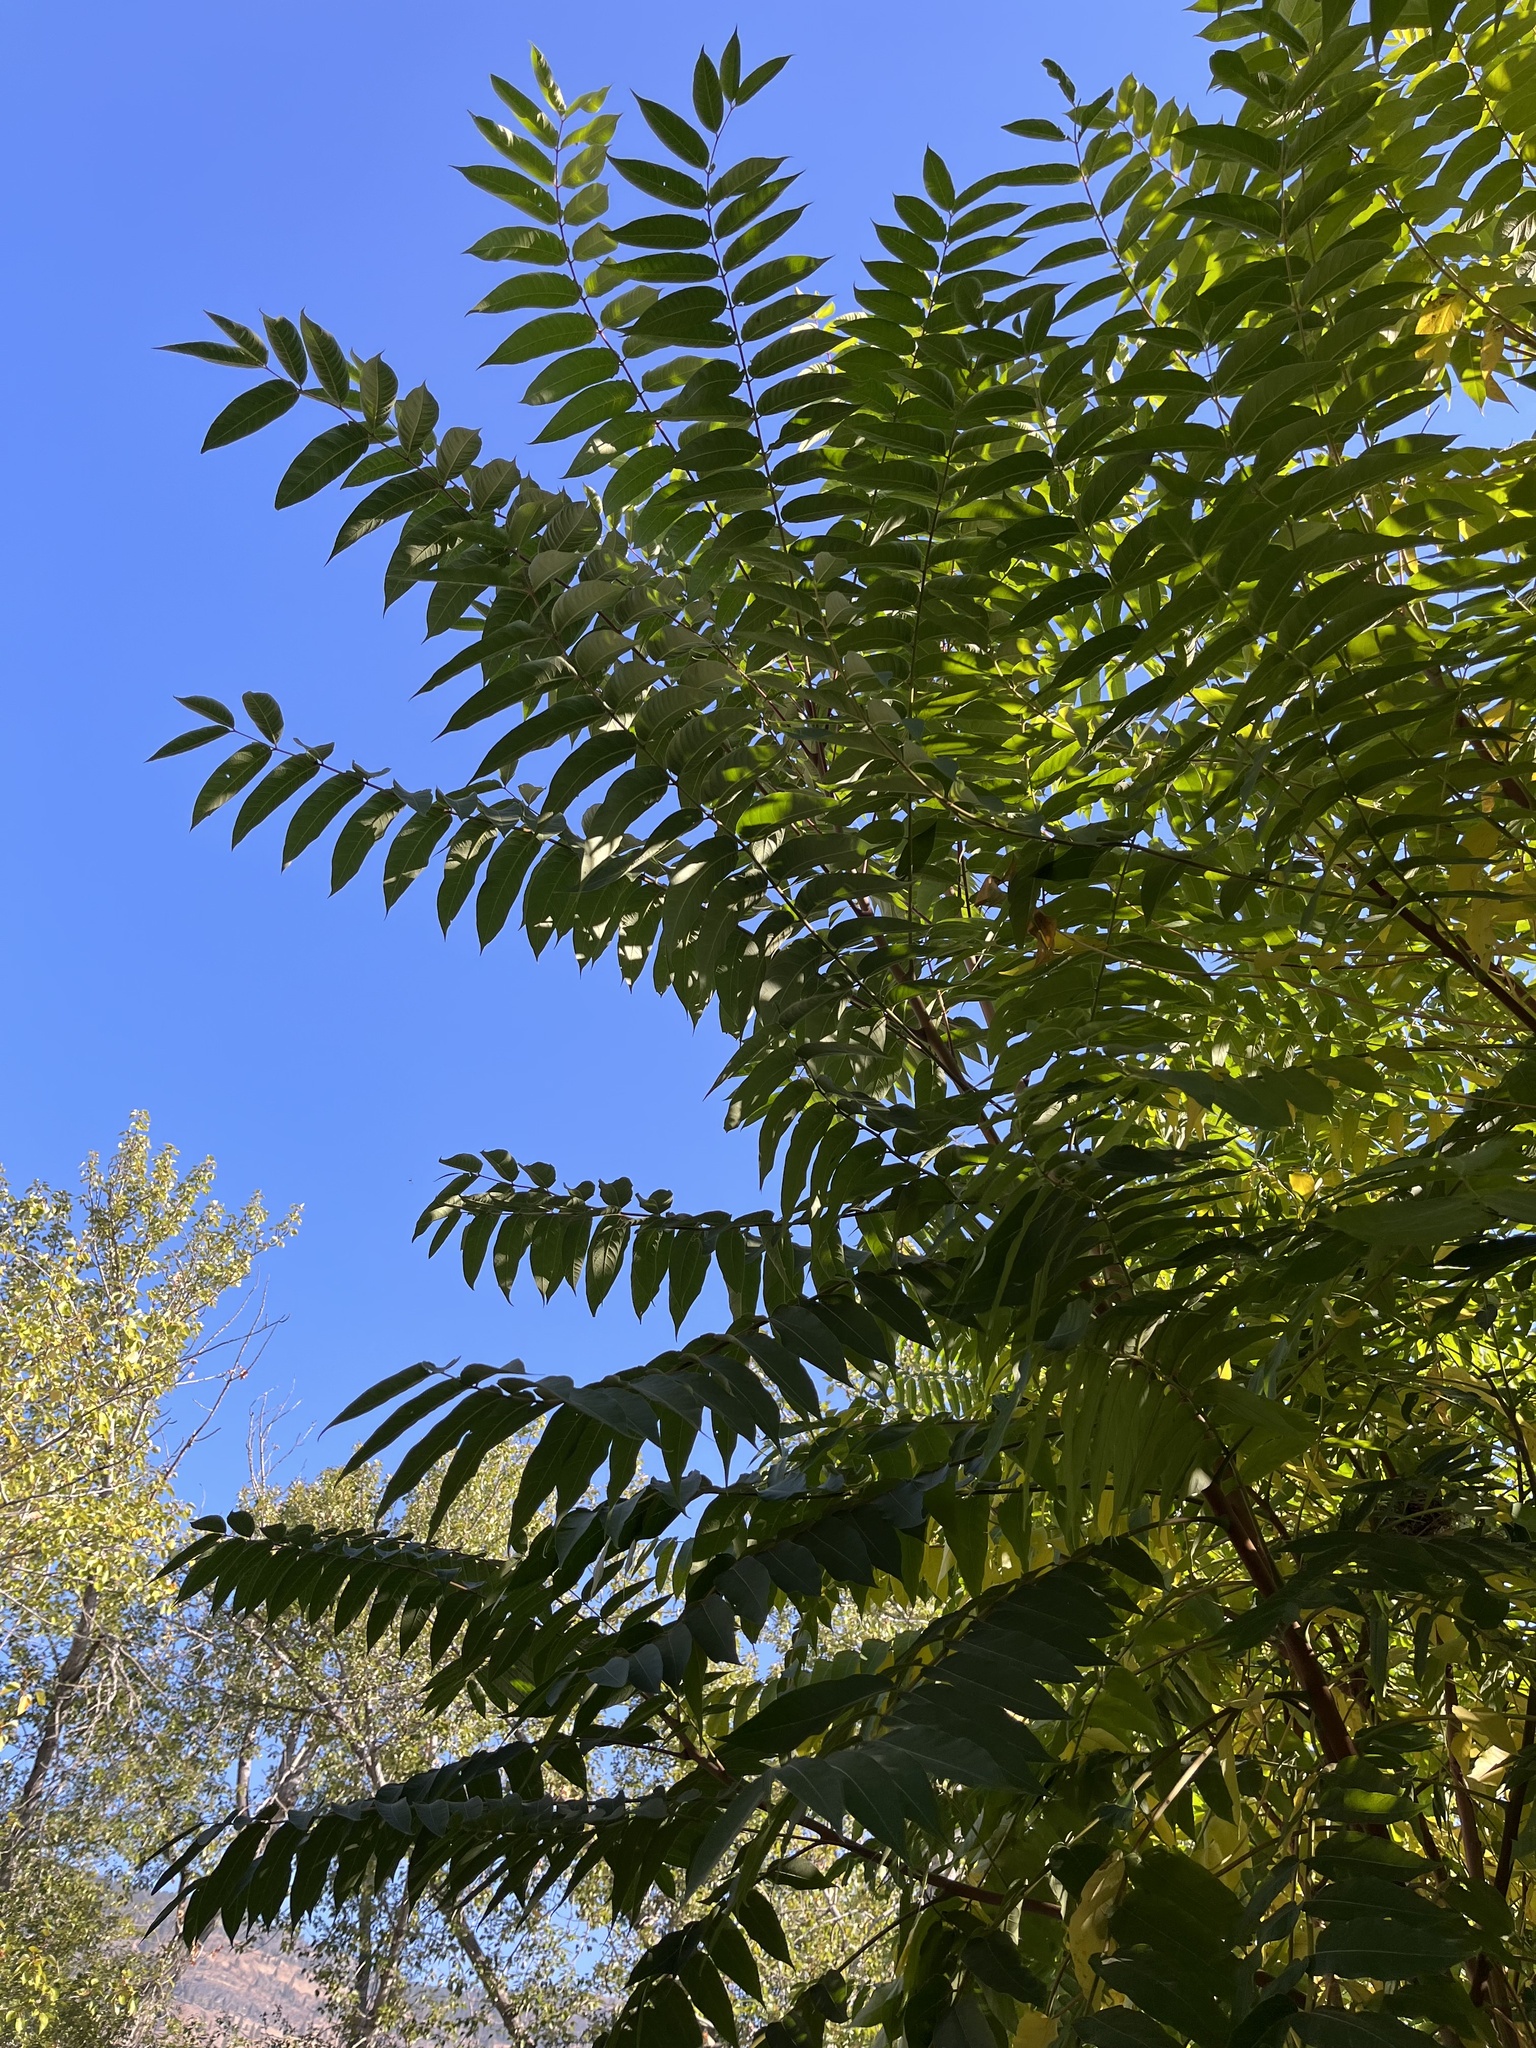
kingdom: Plantae
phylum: Tracheophyta
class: Magnoliopsida
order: Sapindales
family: Simaroubaceae
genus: Ailanthus
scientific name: Ailanthus altissima
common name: Tree-of-heaven
